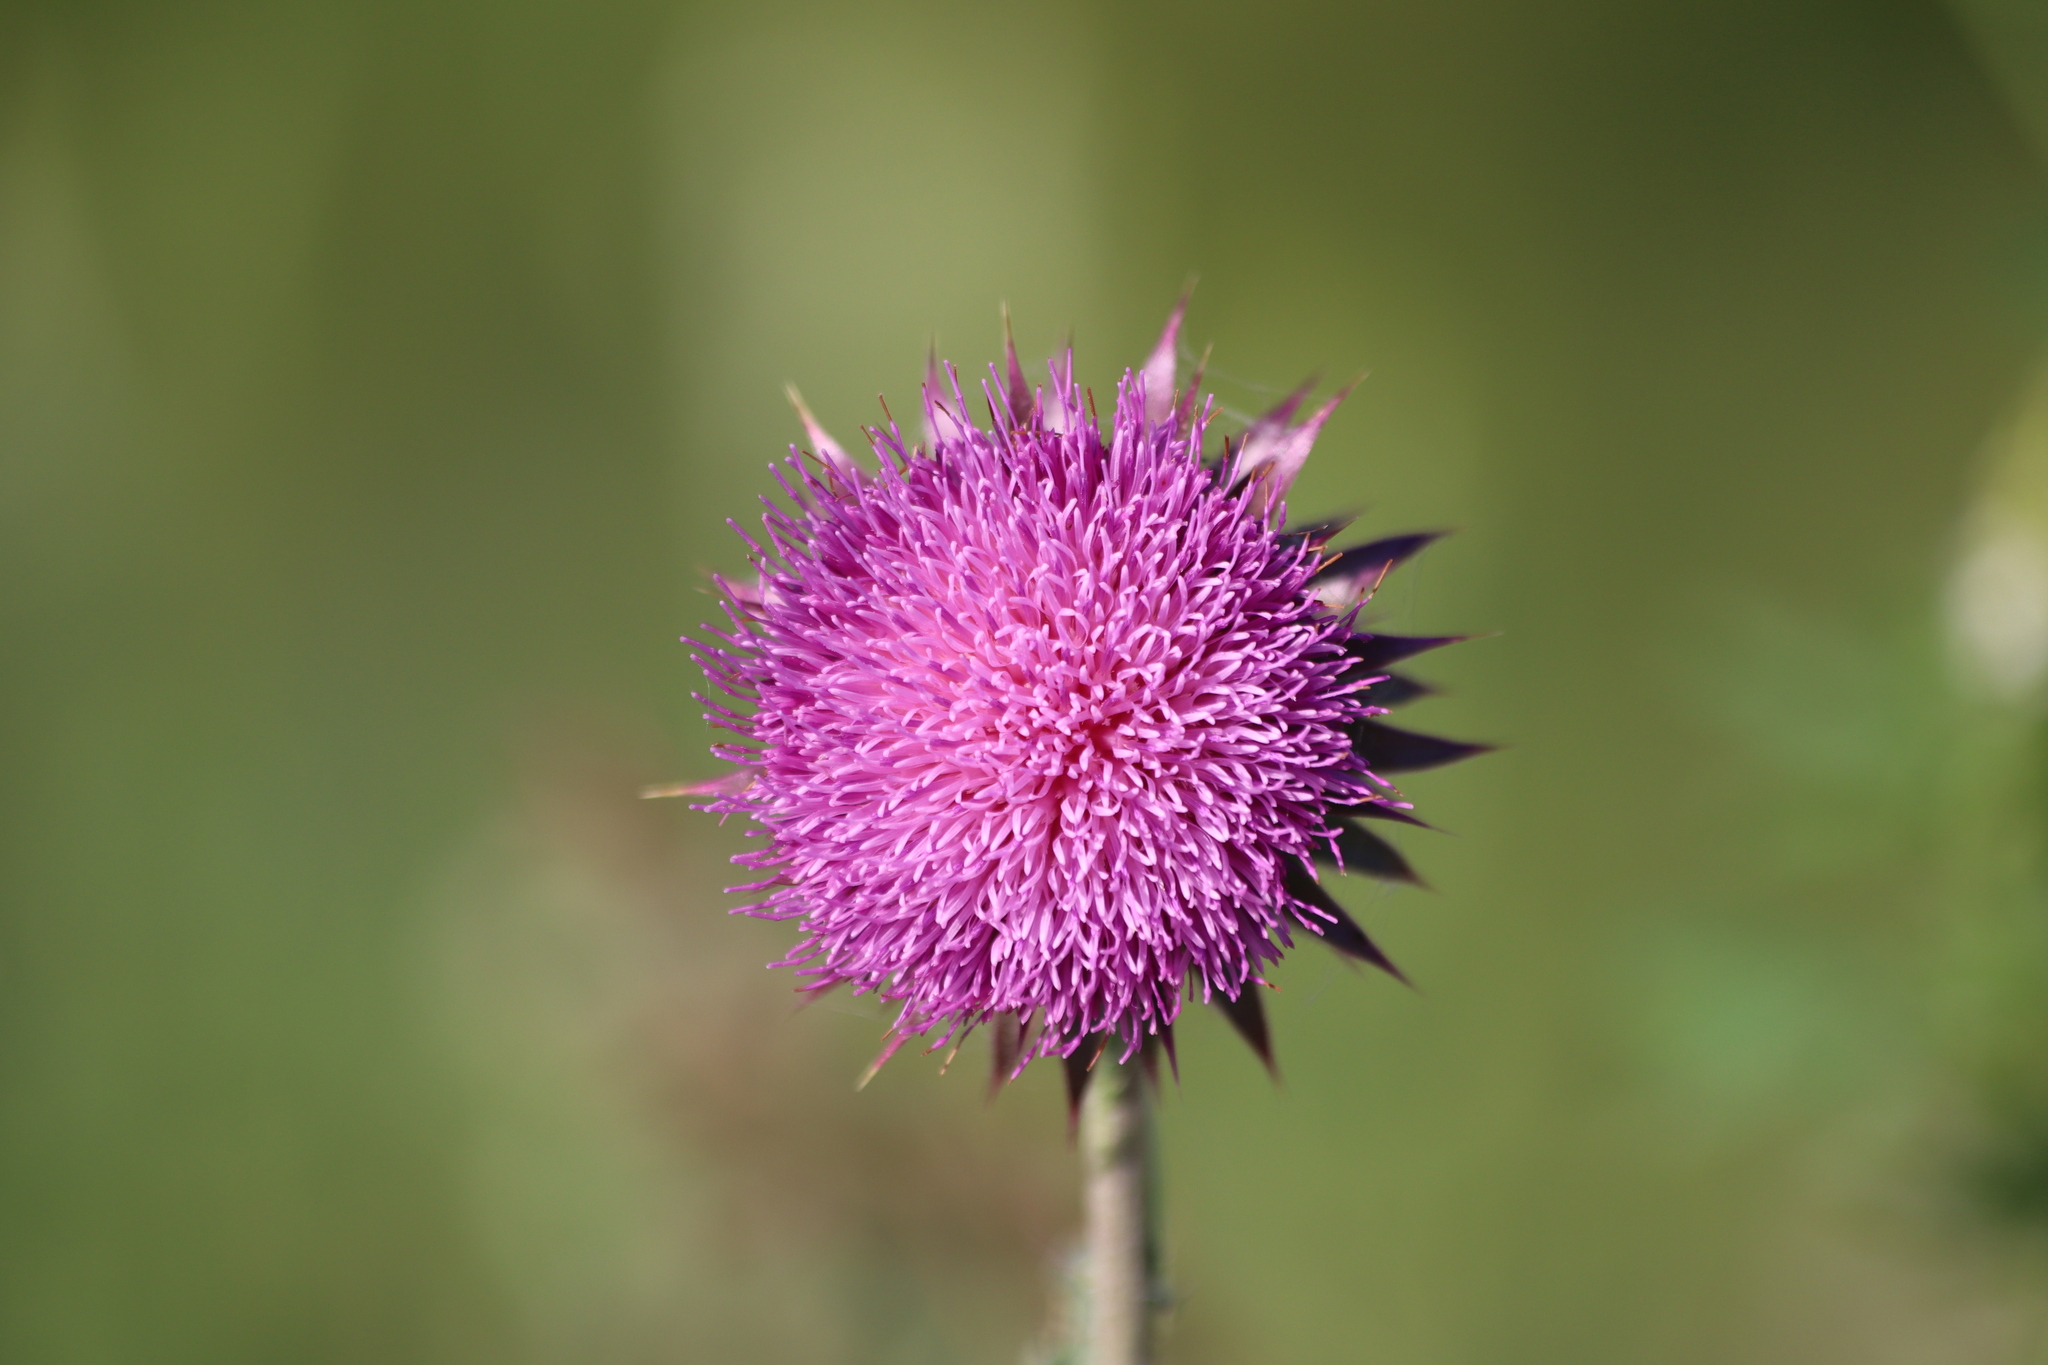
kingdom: Plantae
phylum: Tracheophyta
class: Magnoliopsida
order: Asterales
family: Asteraceae
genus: Carduus
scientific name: Carduus nutans
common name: Musk thistle
